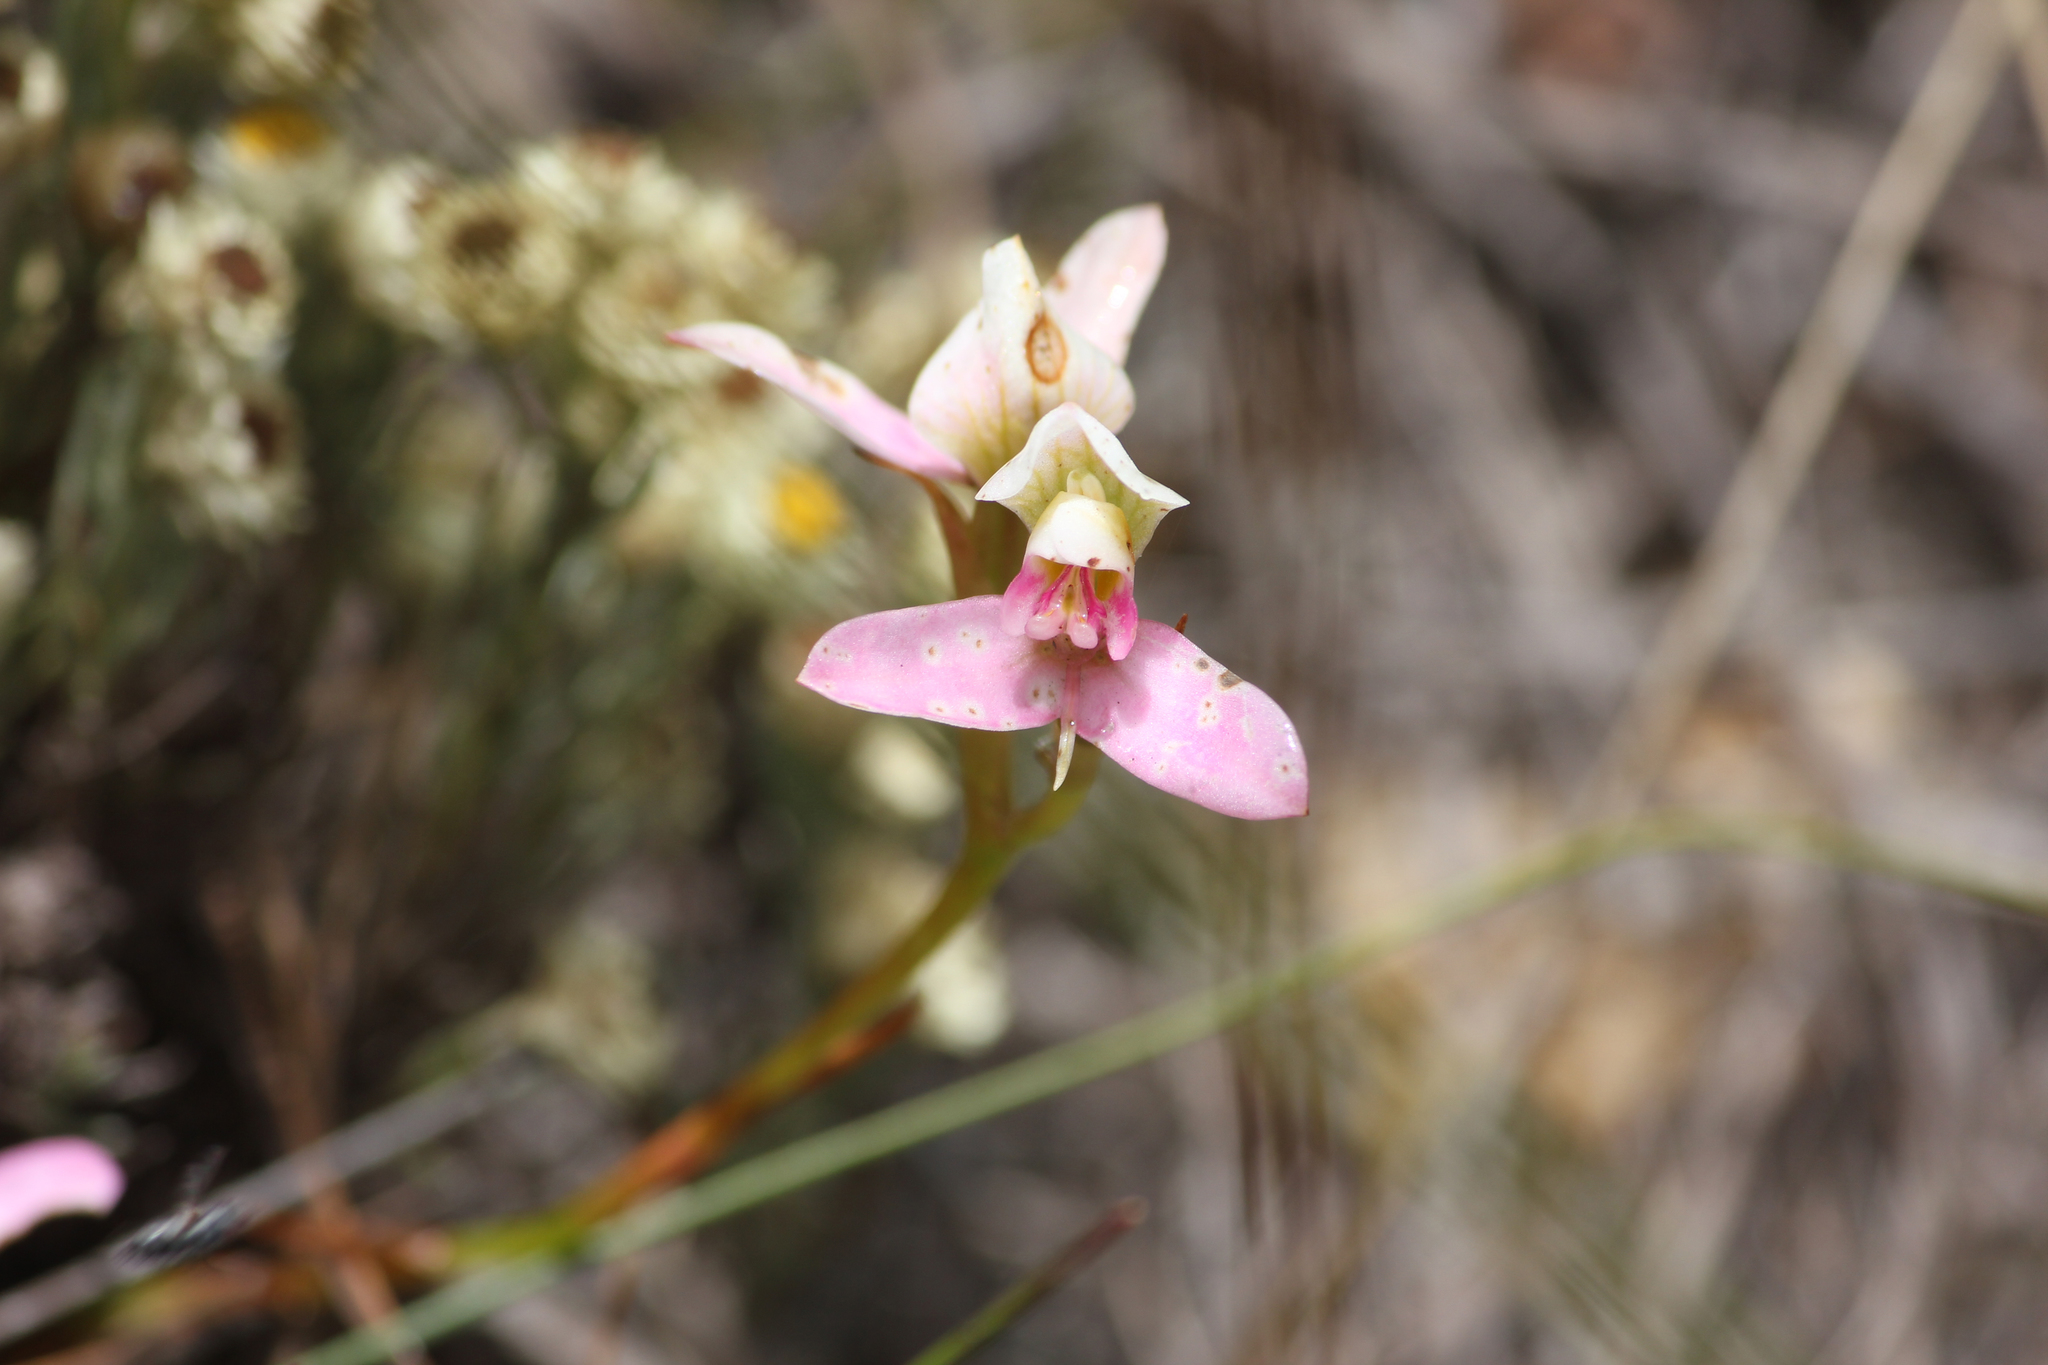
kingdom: Plantae
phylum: Tracheophyta
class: Liliopsida
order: Asparagales
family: Orchidaceae
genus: Disa
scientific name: Disa filicornis
